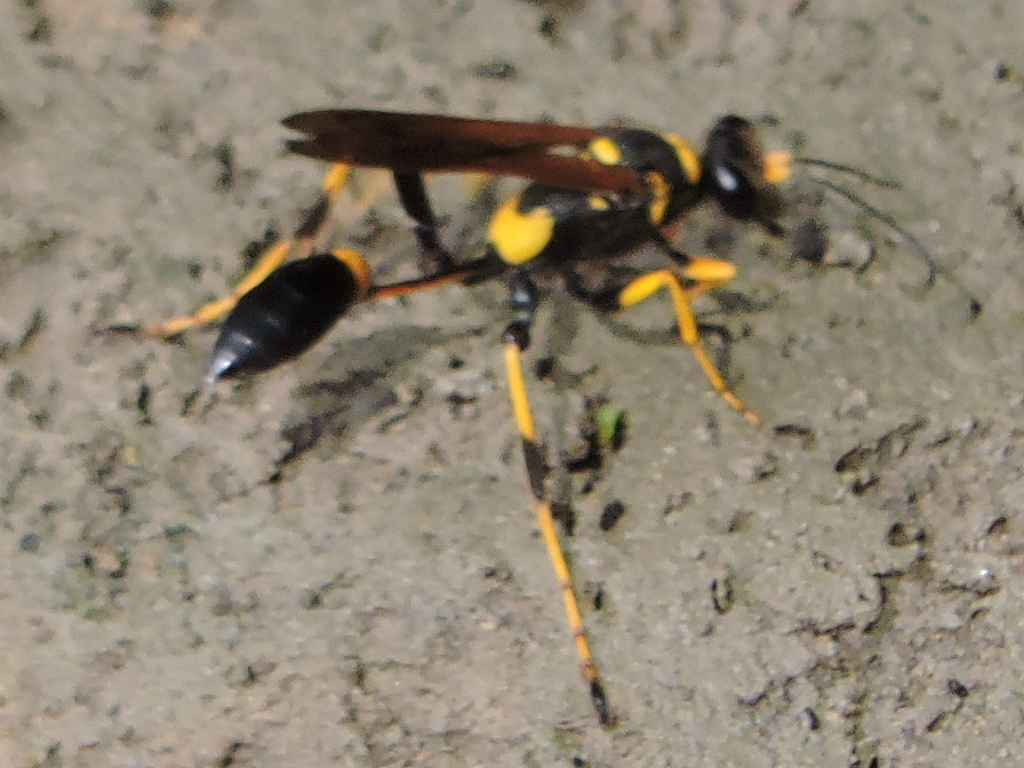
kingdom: Animalia
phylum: Arthropoda
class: Insecta
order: Hymenoptera
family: Sphecidae
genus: Sceliphron
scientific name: Sceliphron caementarium
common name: Mud dauber
